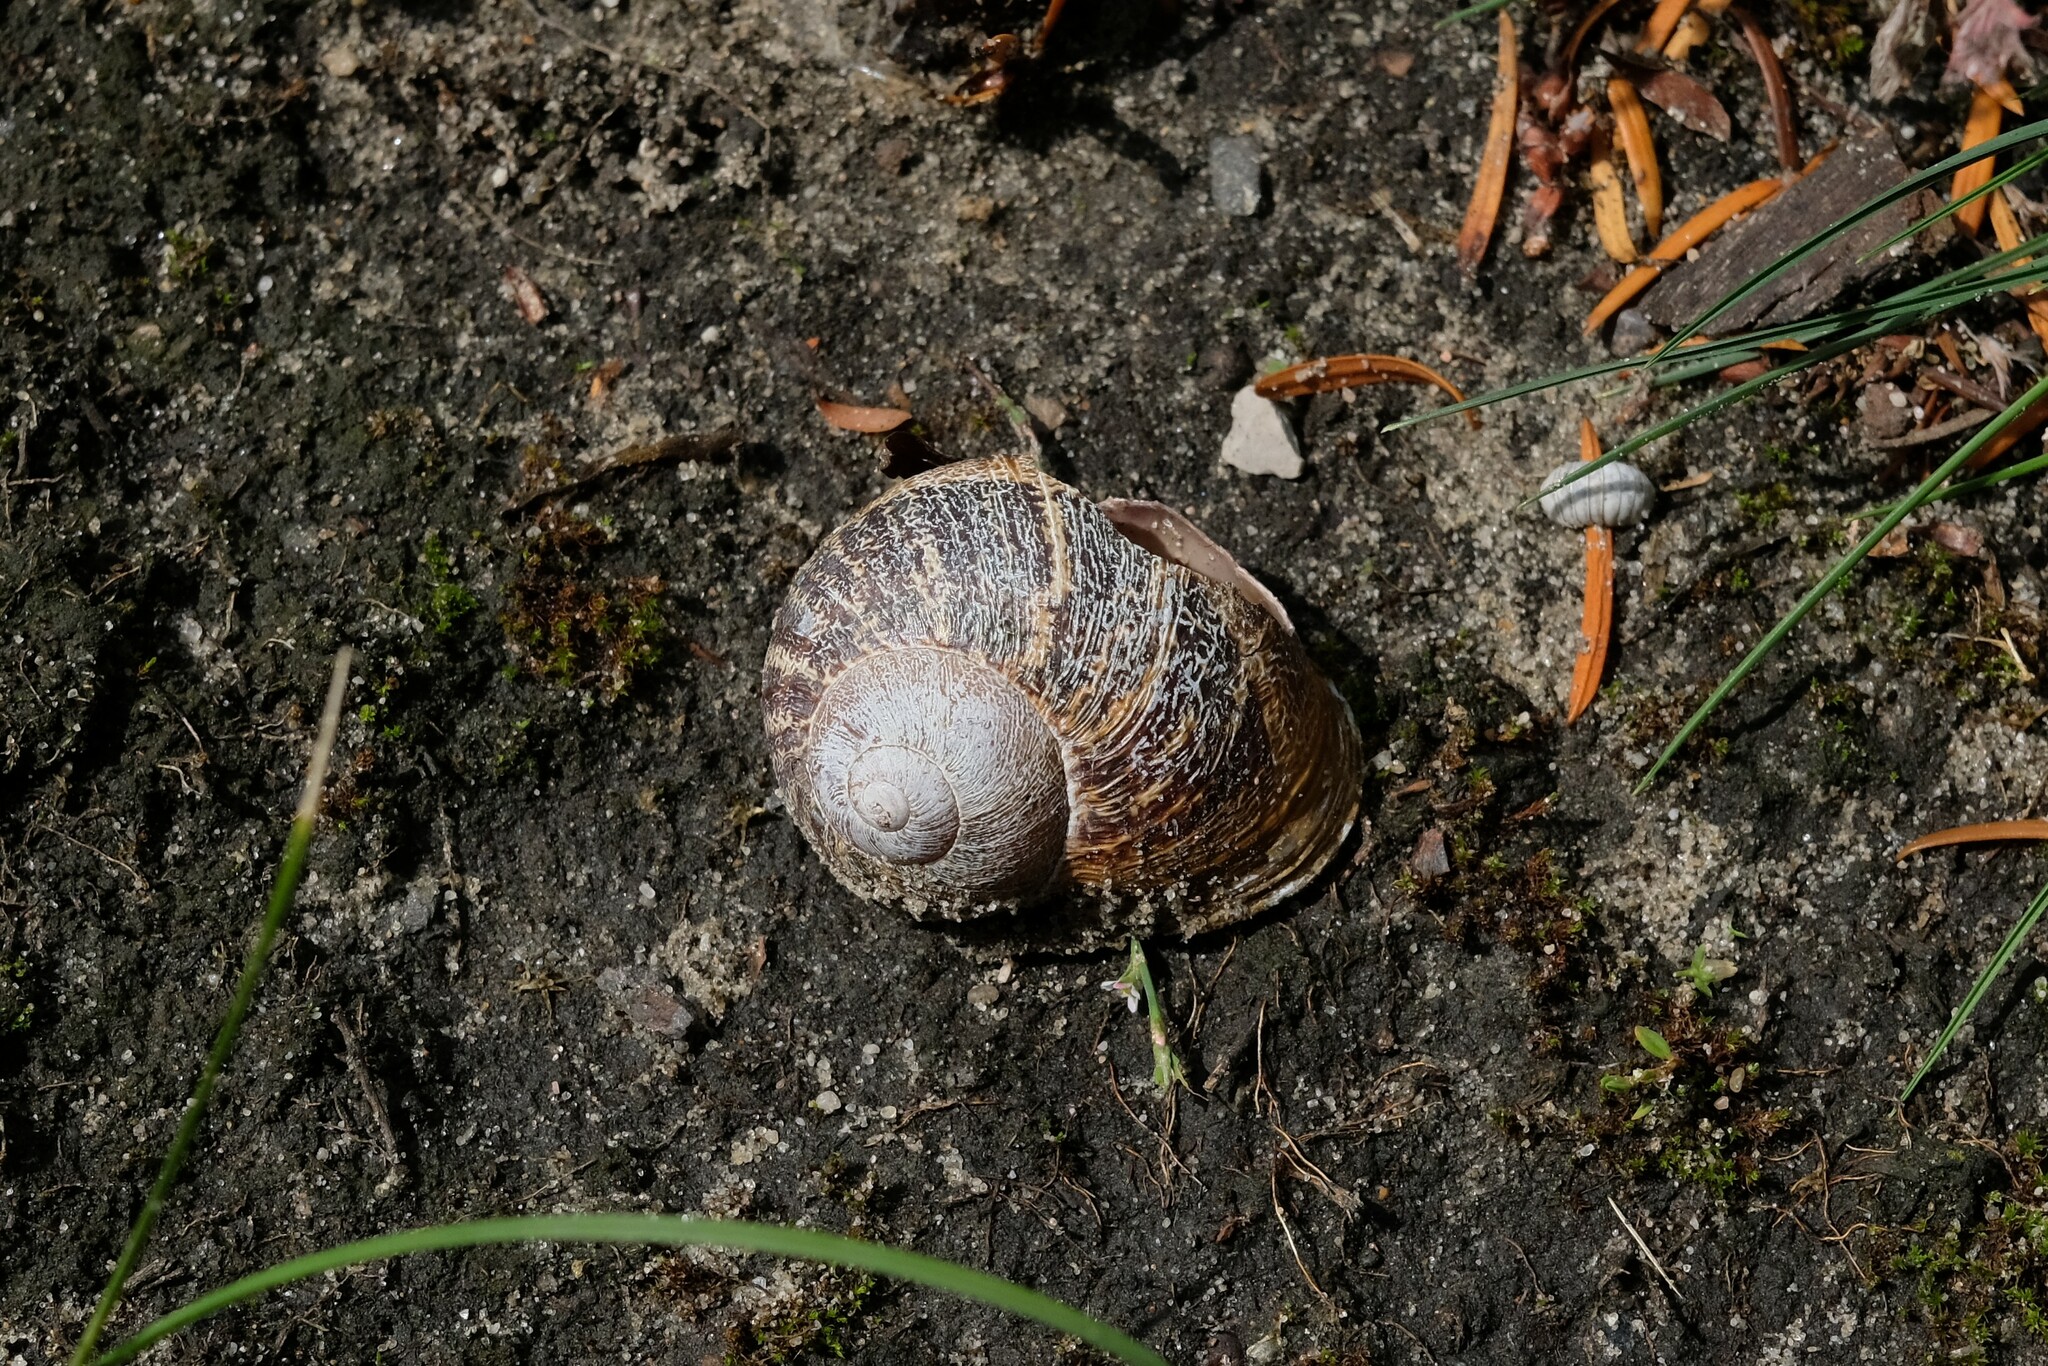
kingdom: Animalia
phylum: Mollusca
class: Gastropoda
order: Stylommatophora
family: Helicidae
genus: Cornu
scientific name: Cornu aspersum
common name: Brown garden snail
